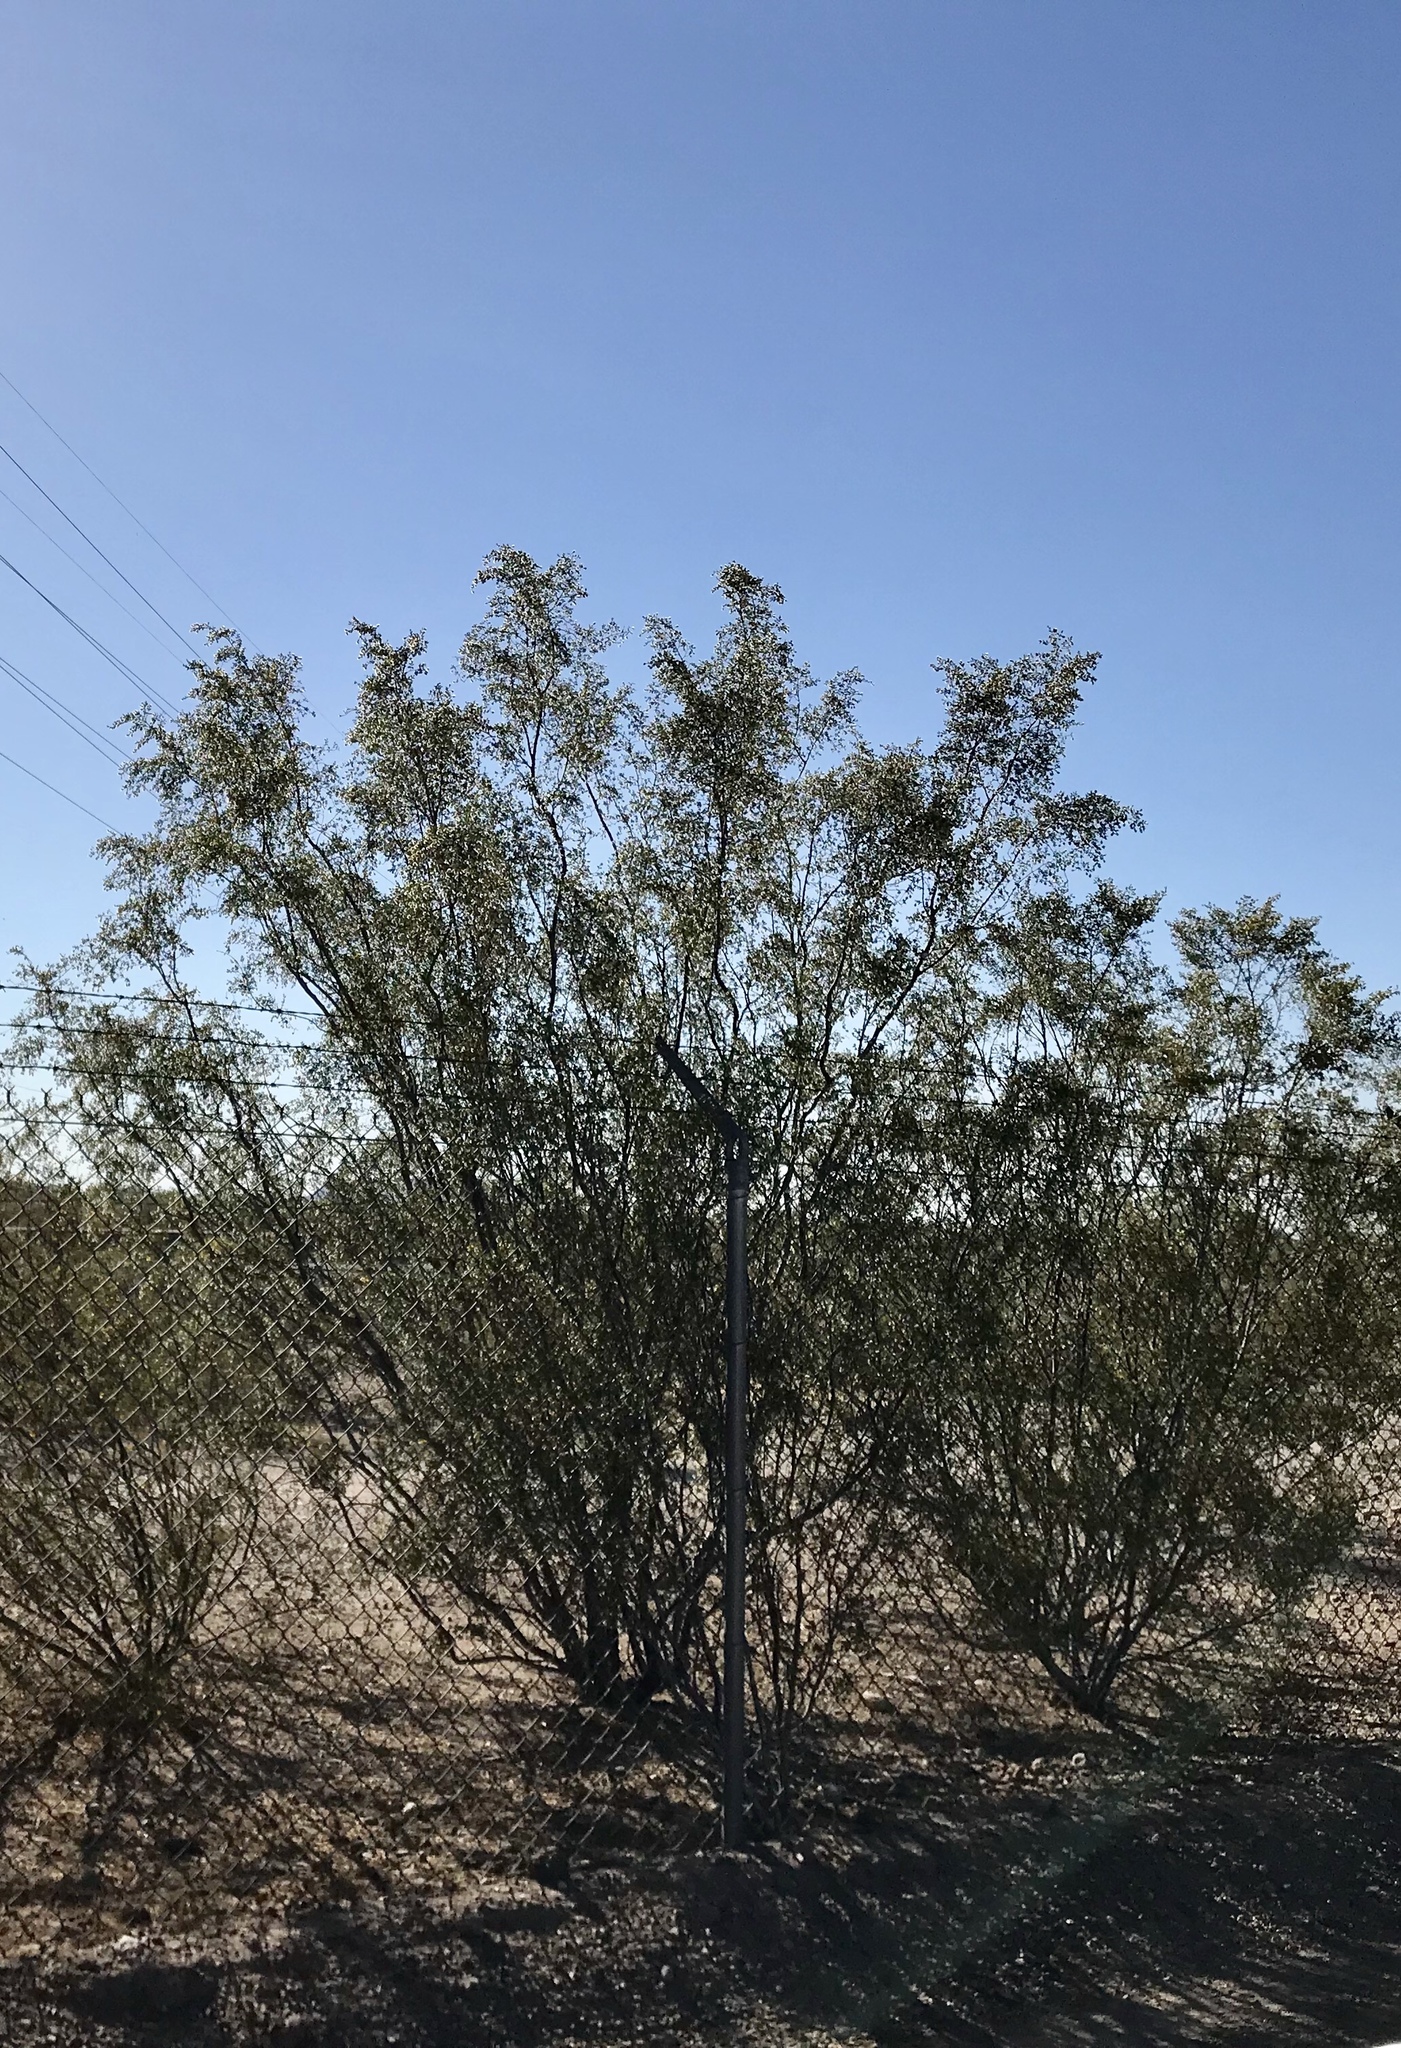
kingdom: Plantae
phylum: Tracheophyta
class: Magnoliopsida
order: Zygophyllales
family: Zygophyllaceae
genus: Larrea
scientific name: Larrea tridentata
